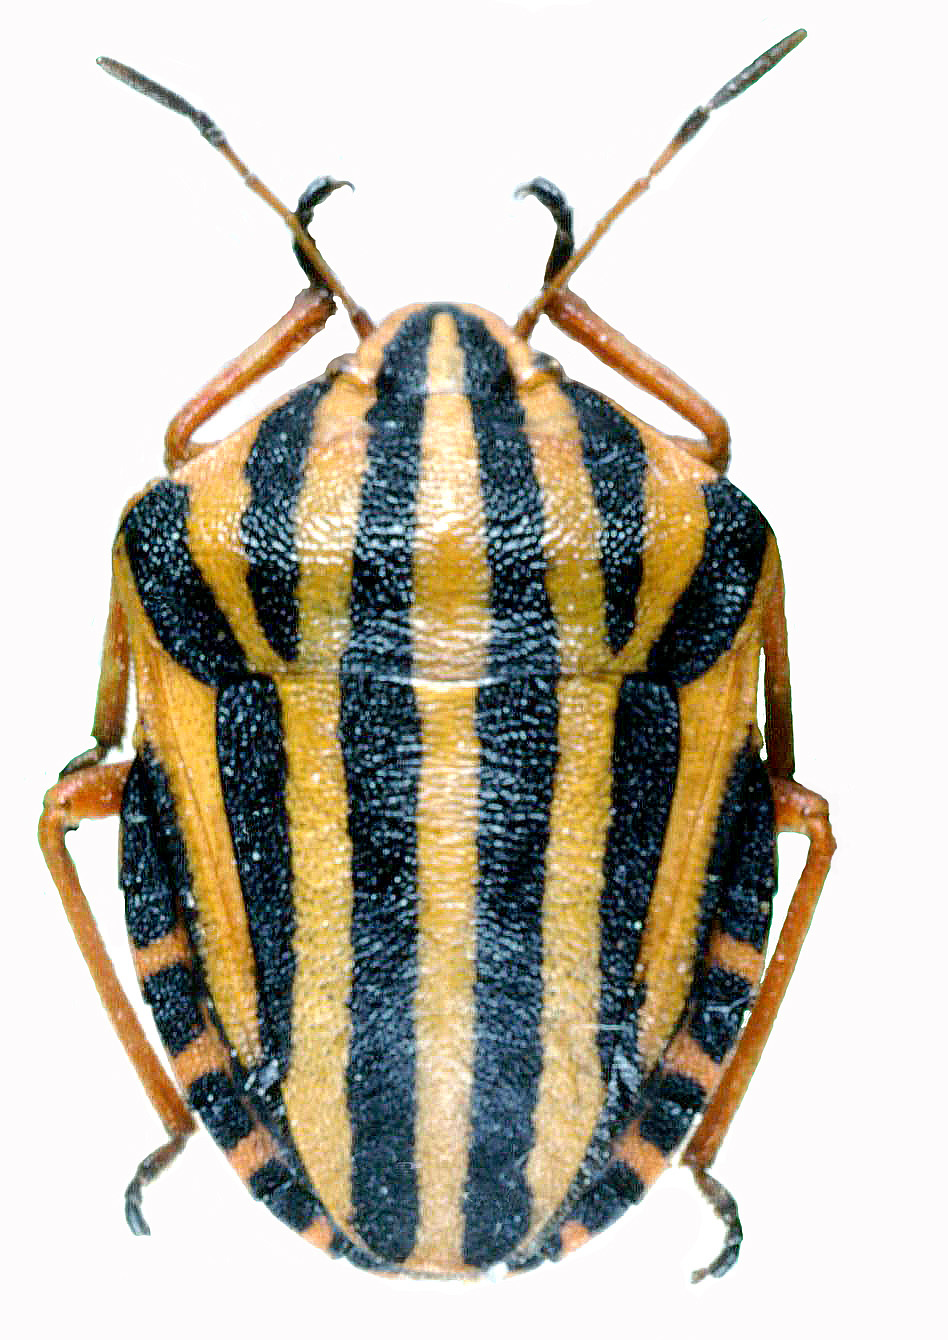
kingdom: Animalia
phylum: Arthropoda
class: Insecta
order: Hemiptera
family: Pentatomidae
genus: Graphosoma
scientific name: Graphosoma lineatum
